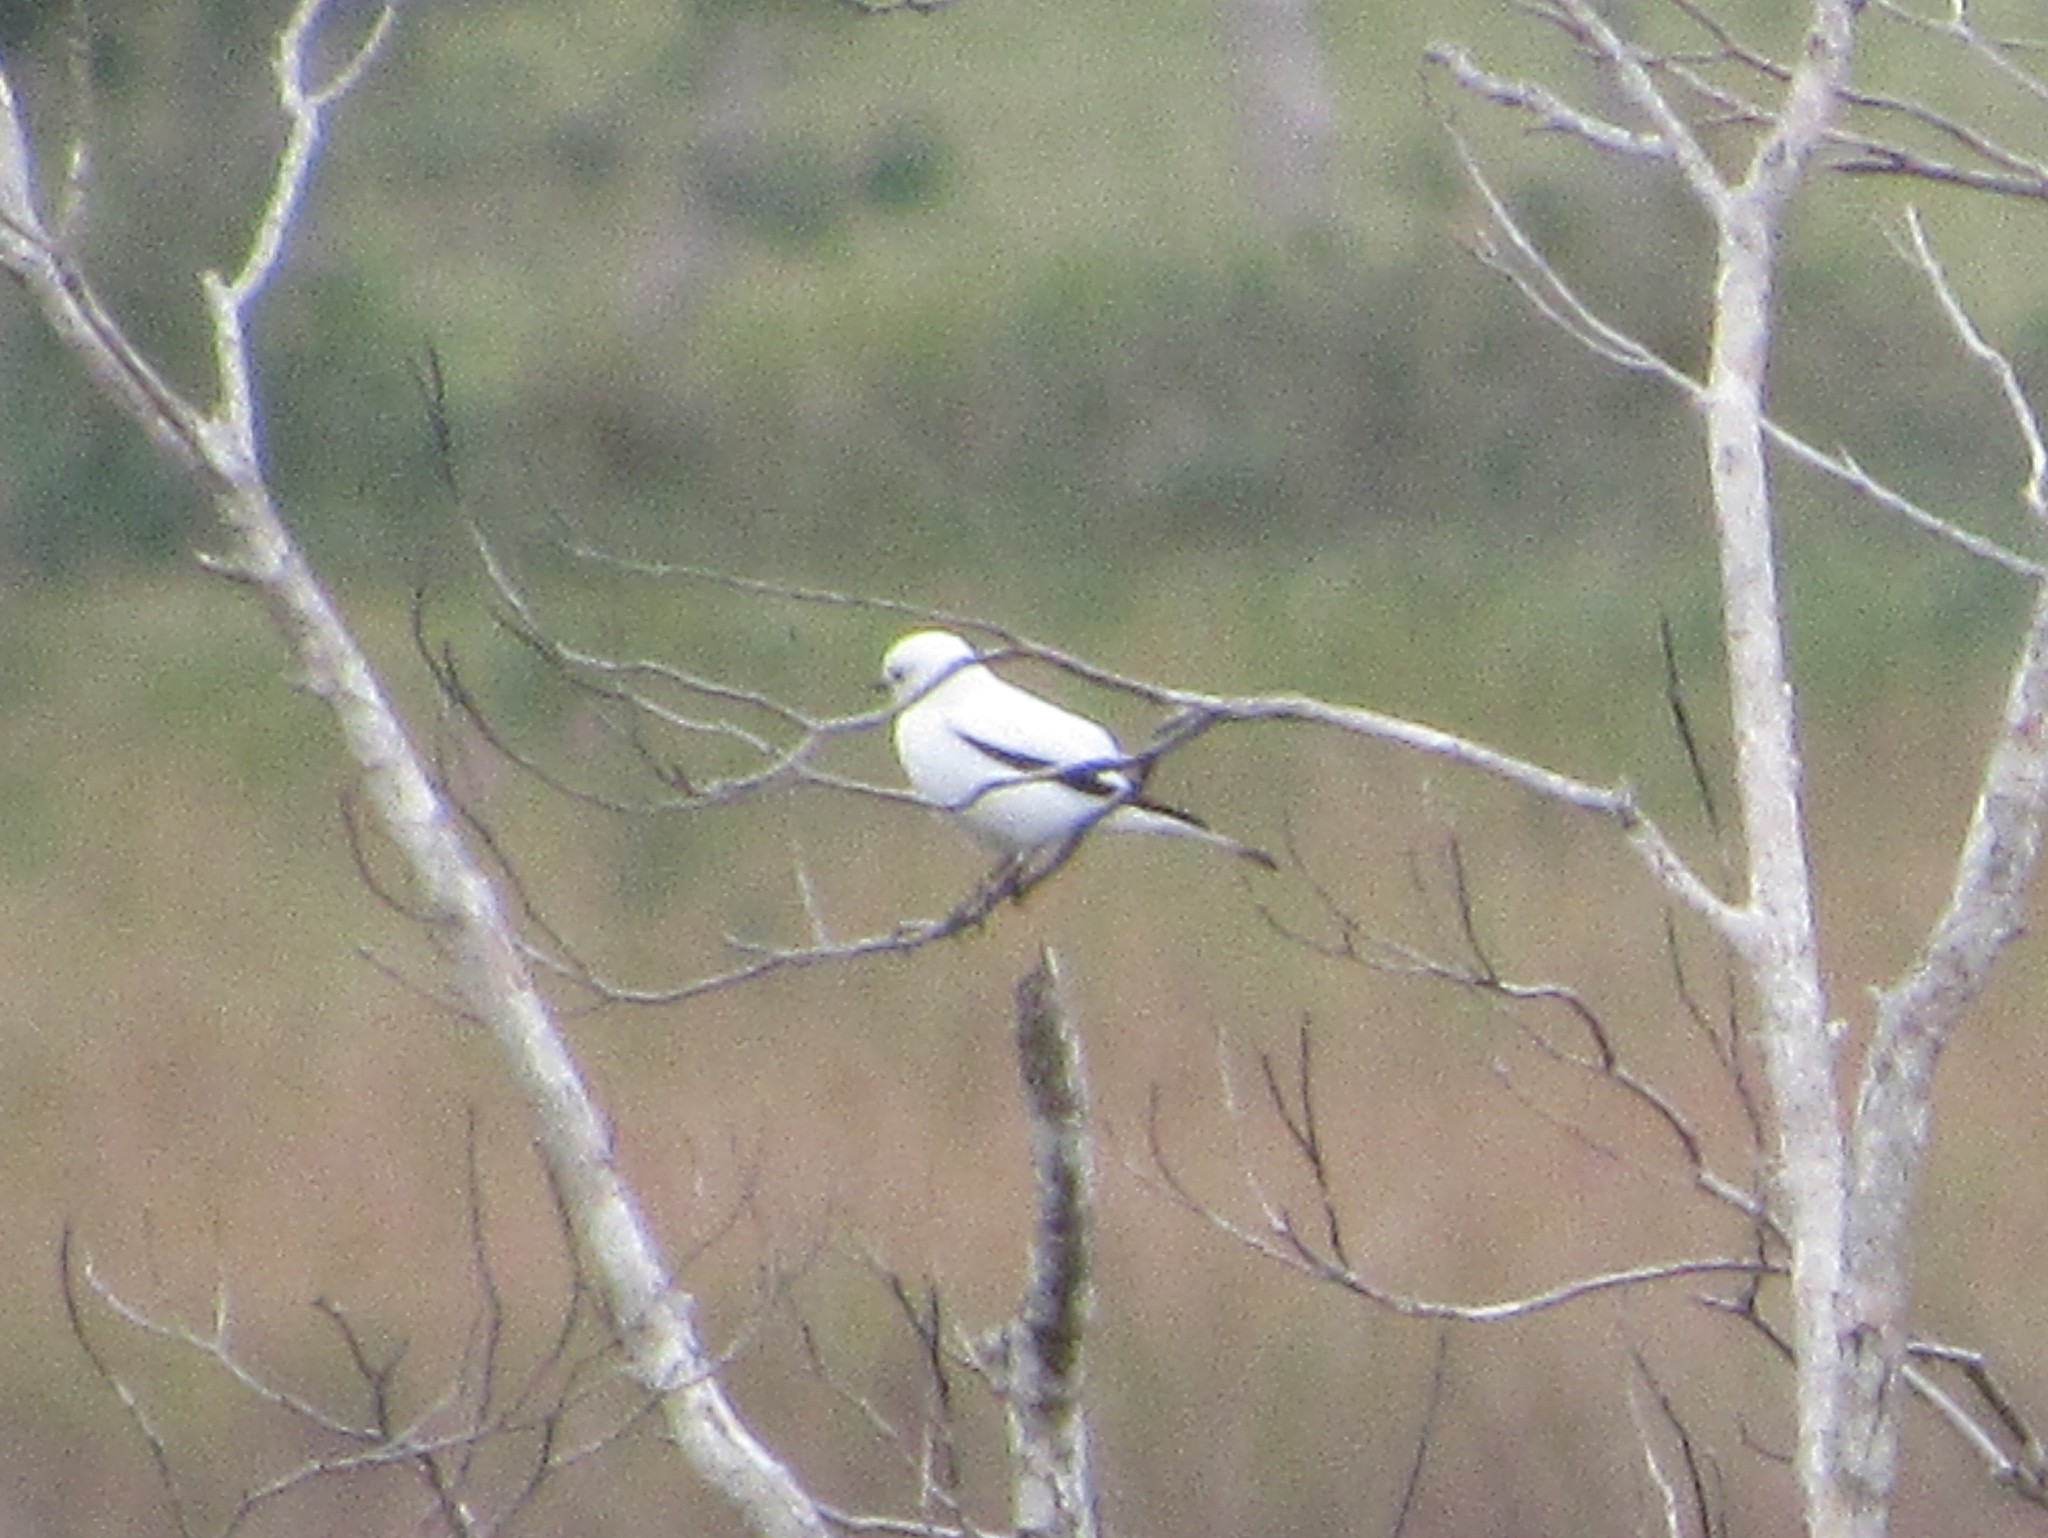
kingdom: Animalia
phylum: Chordata
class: Aves
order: Passeriformes
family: Tyrannidae
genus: Xolmis
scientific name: Xolmis irupero
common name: White monjita
